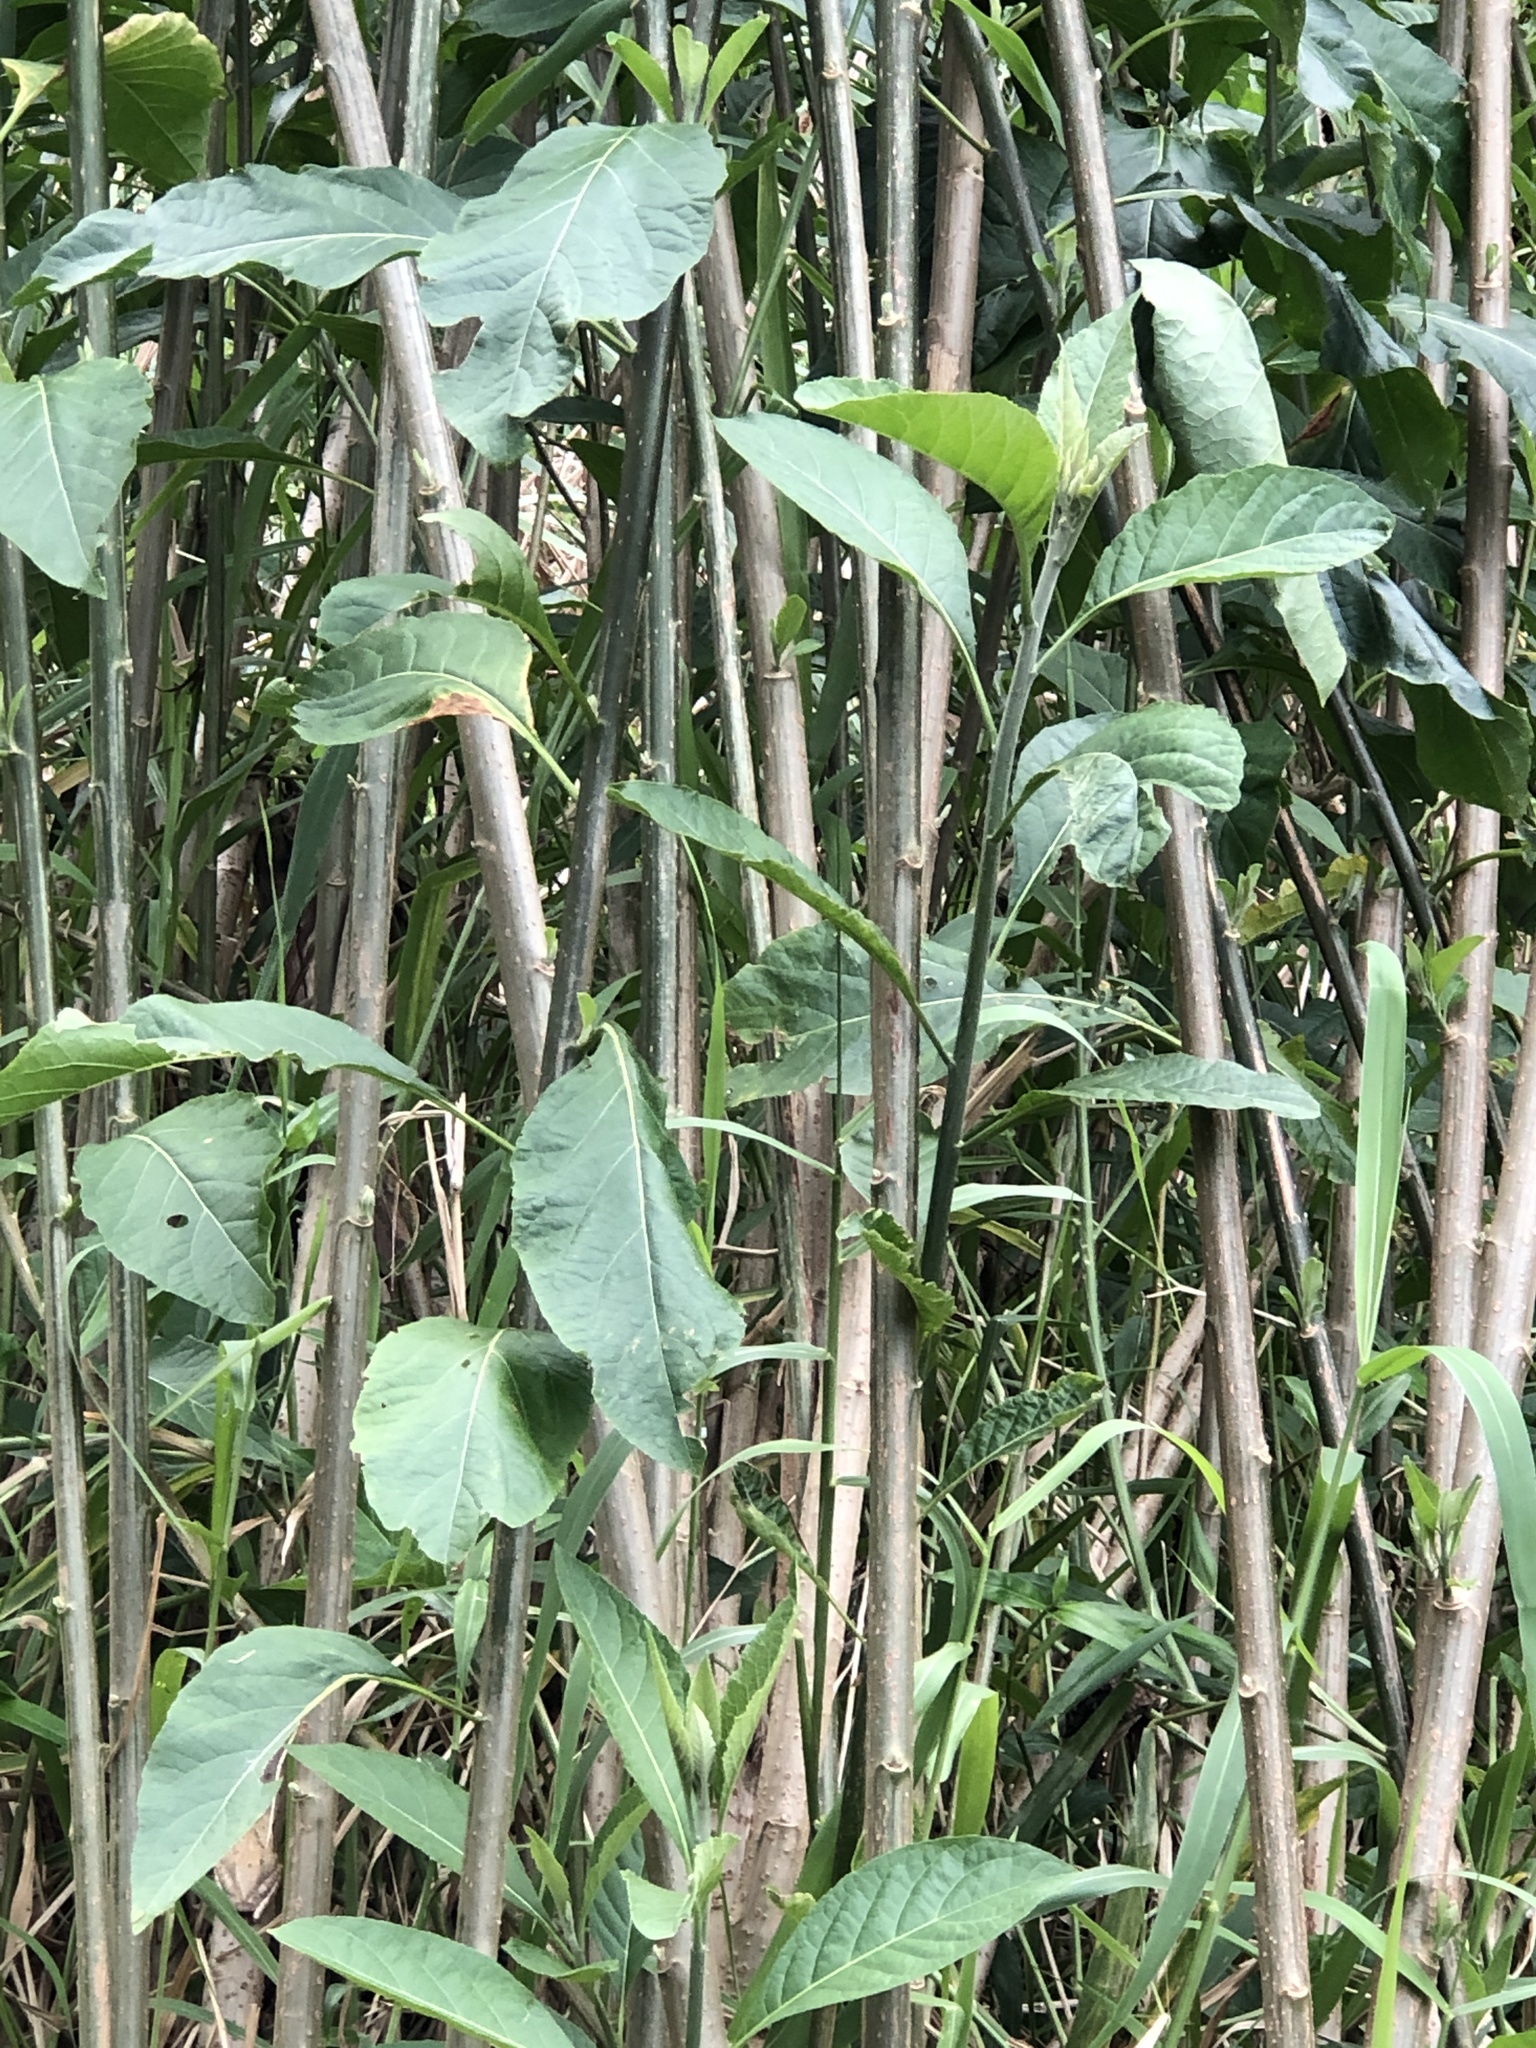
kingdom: Plantae
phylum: Tracheophyta
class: Magnoliopsida
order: Asterales
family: Asteraceae
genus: Gymnanthemum
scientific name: Gymnanthemum amygdalinum
